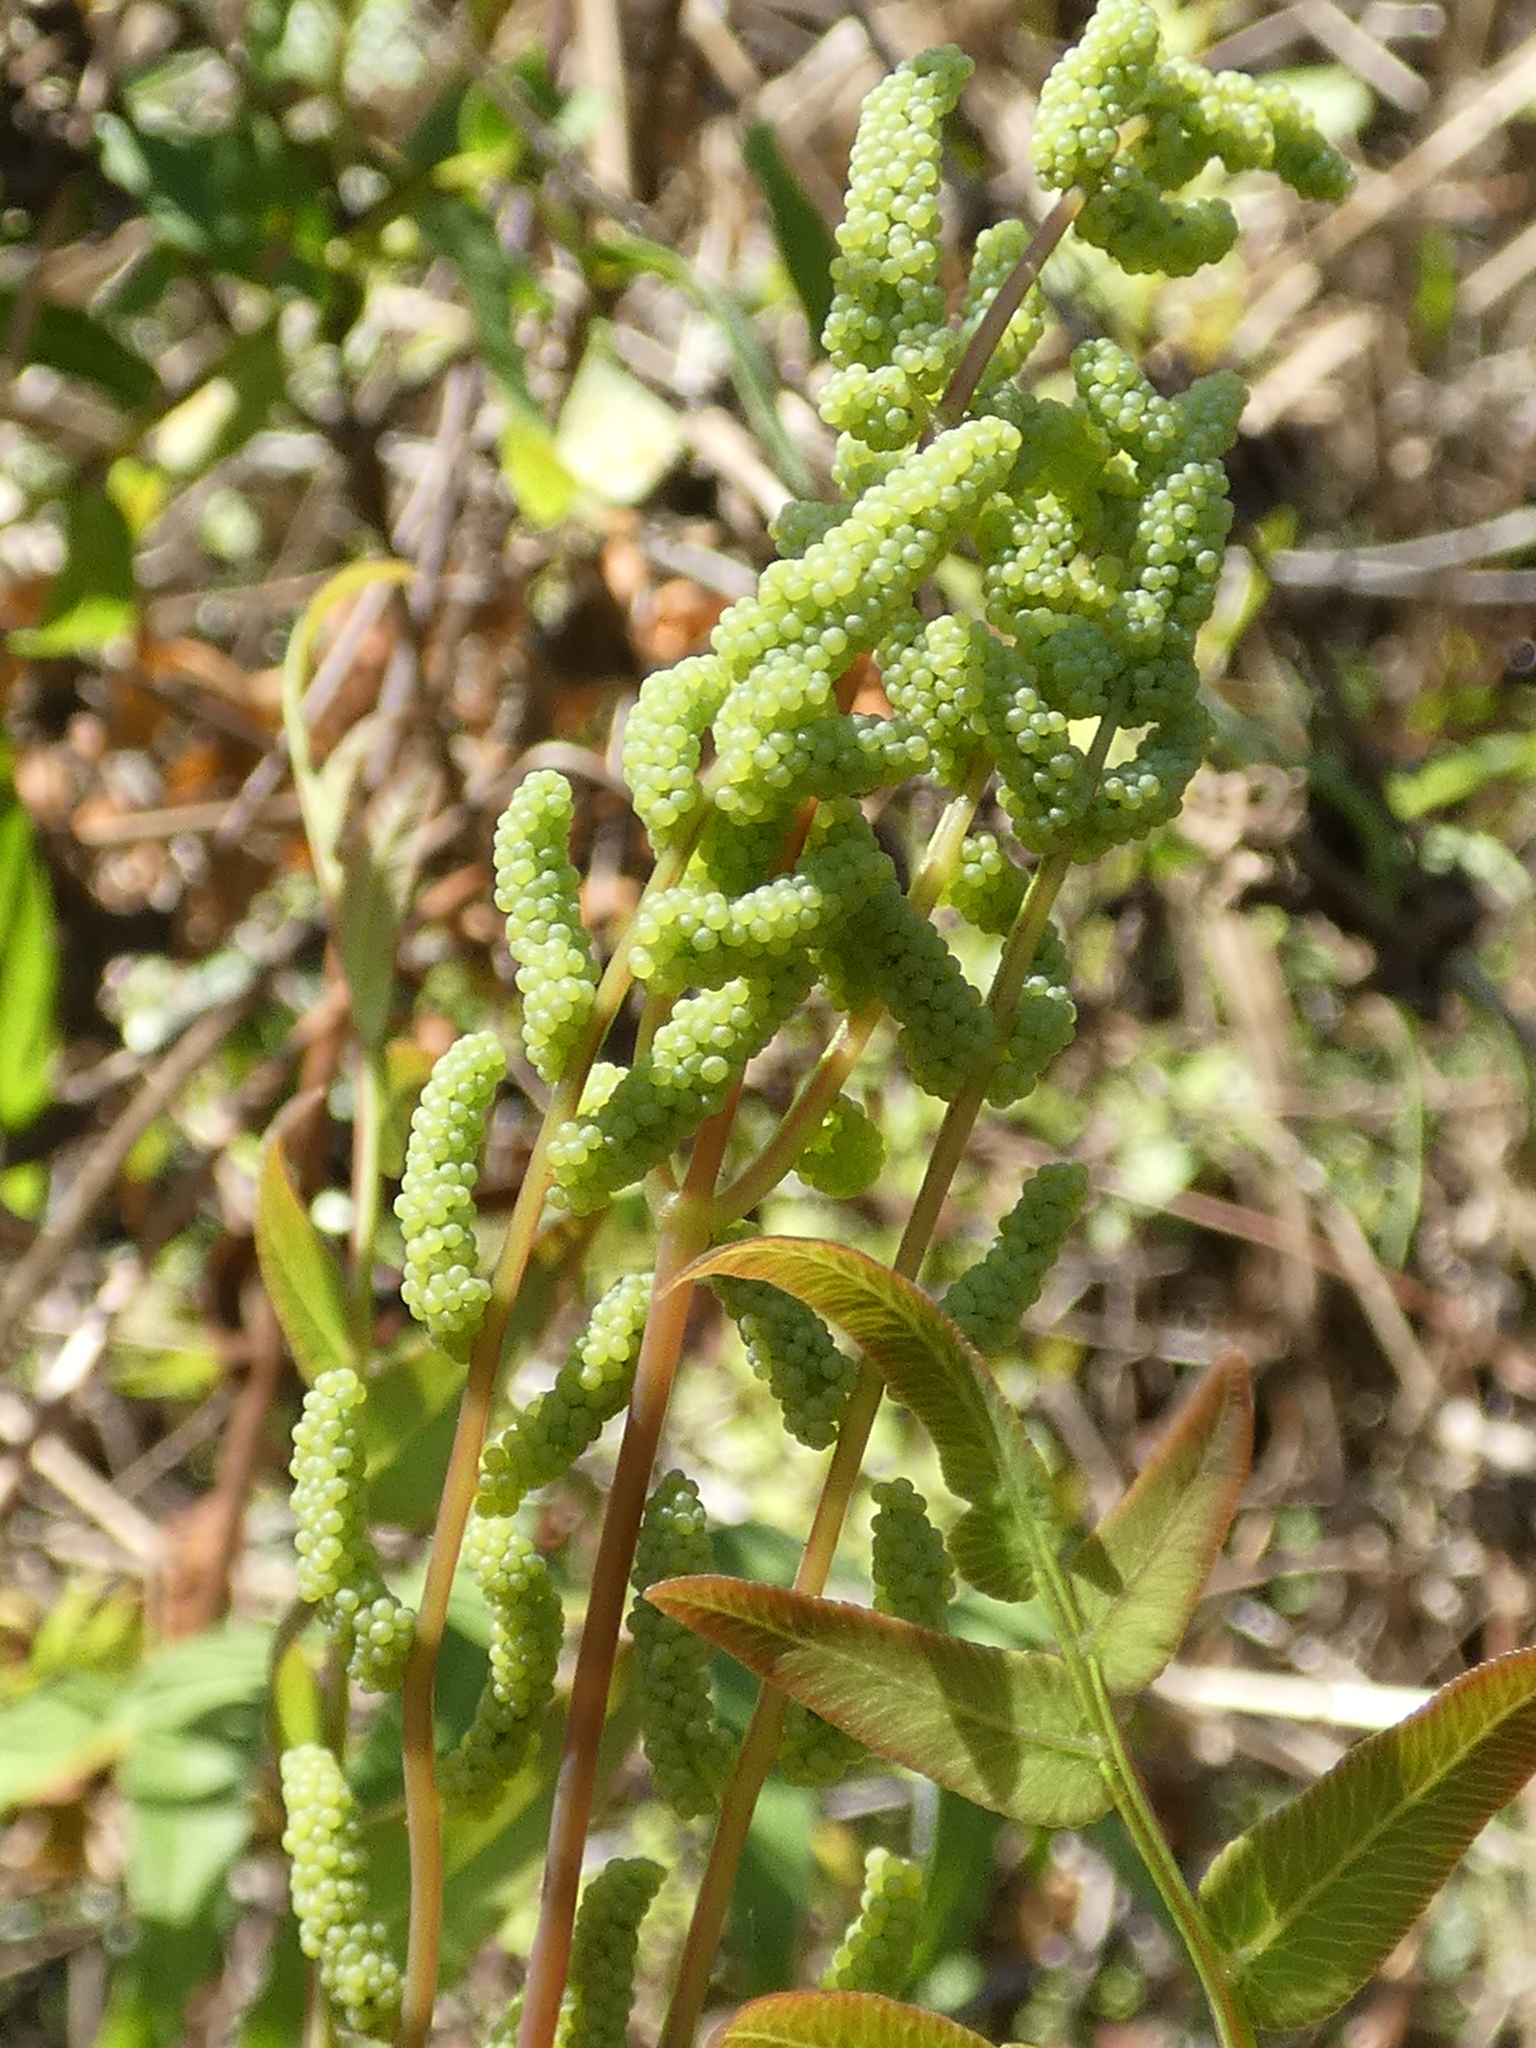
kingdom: Plantae
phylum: Tracheophyta
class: Polypodiopsida
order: Osmundales
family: Osmundaceae
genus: Osmunda
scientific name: Osmunda spectabilis
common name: American royal fern
